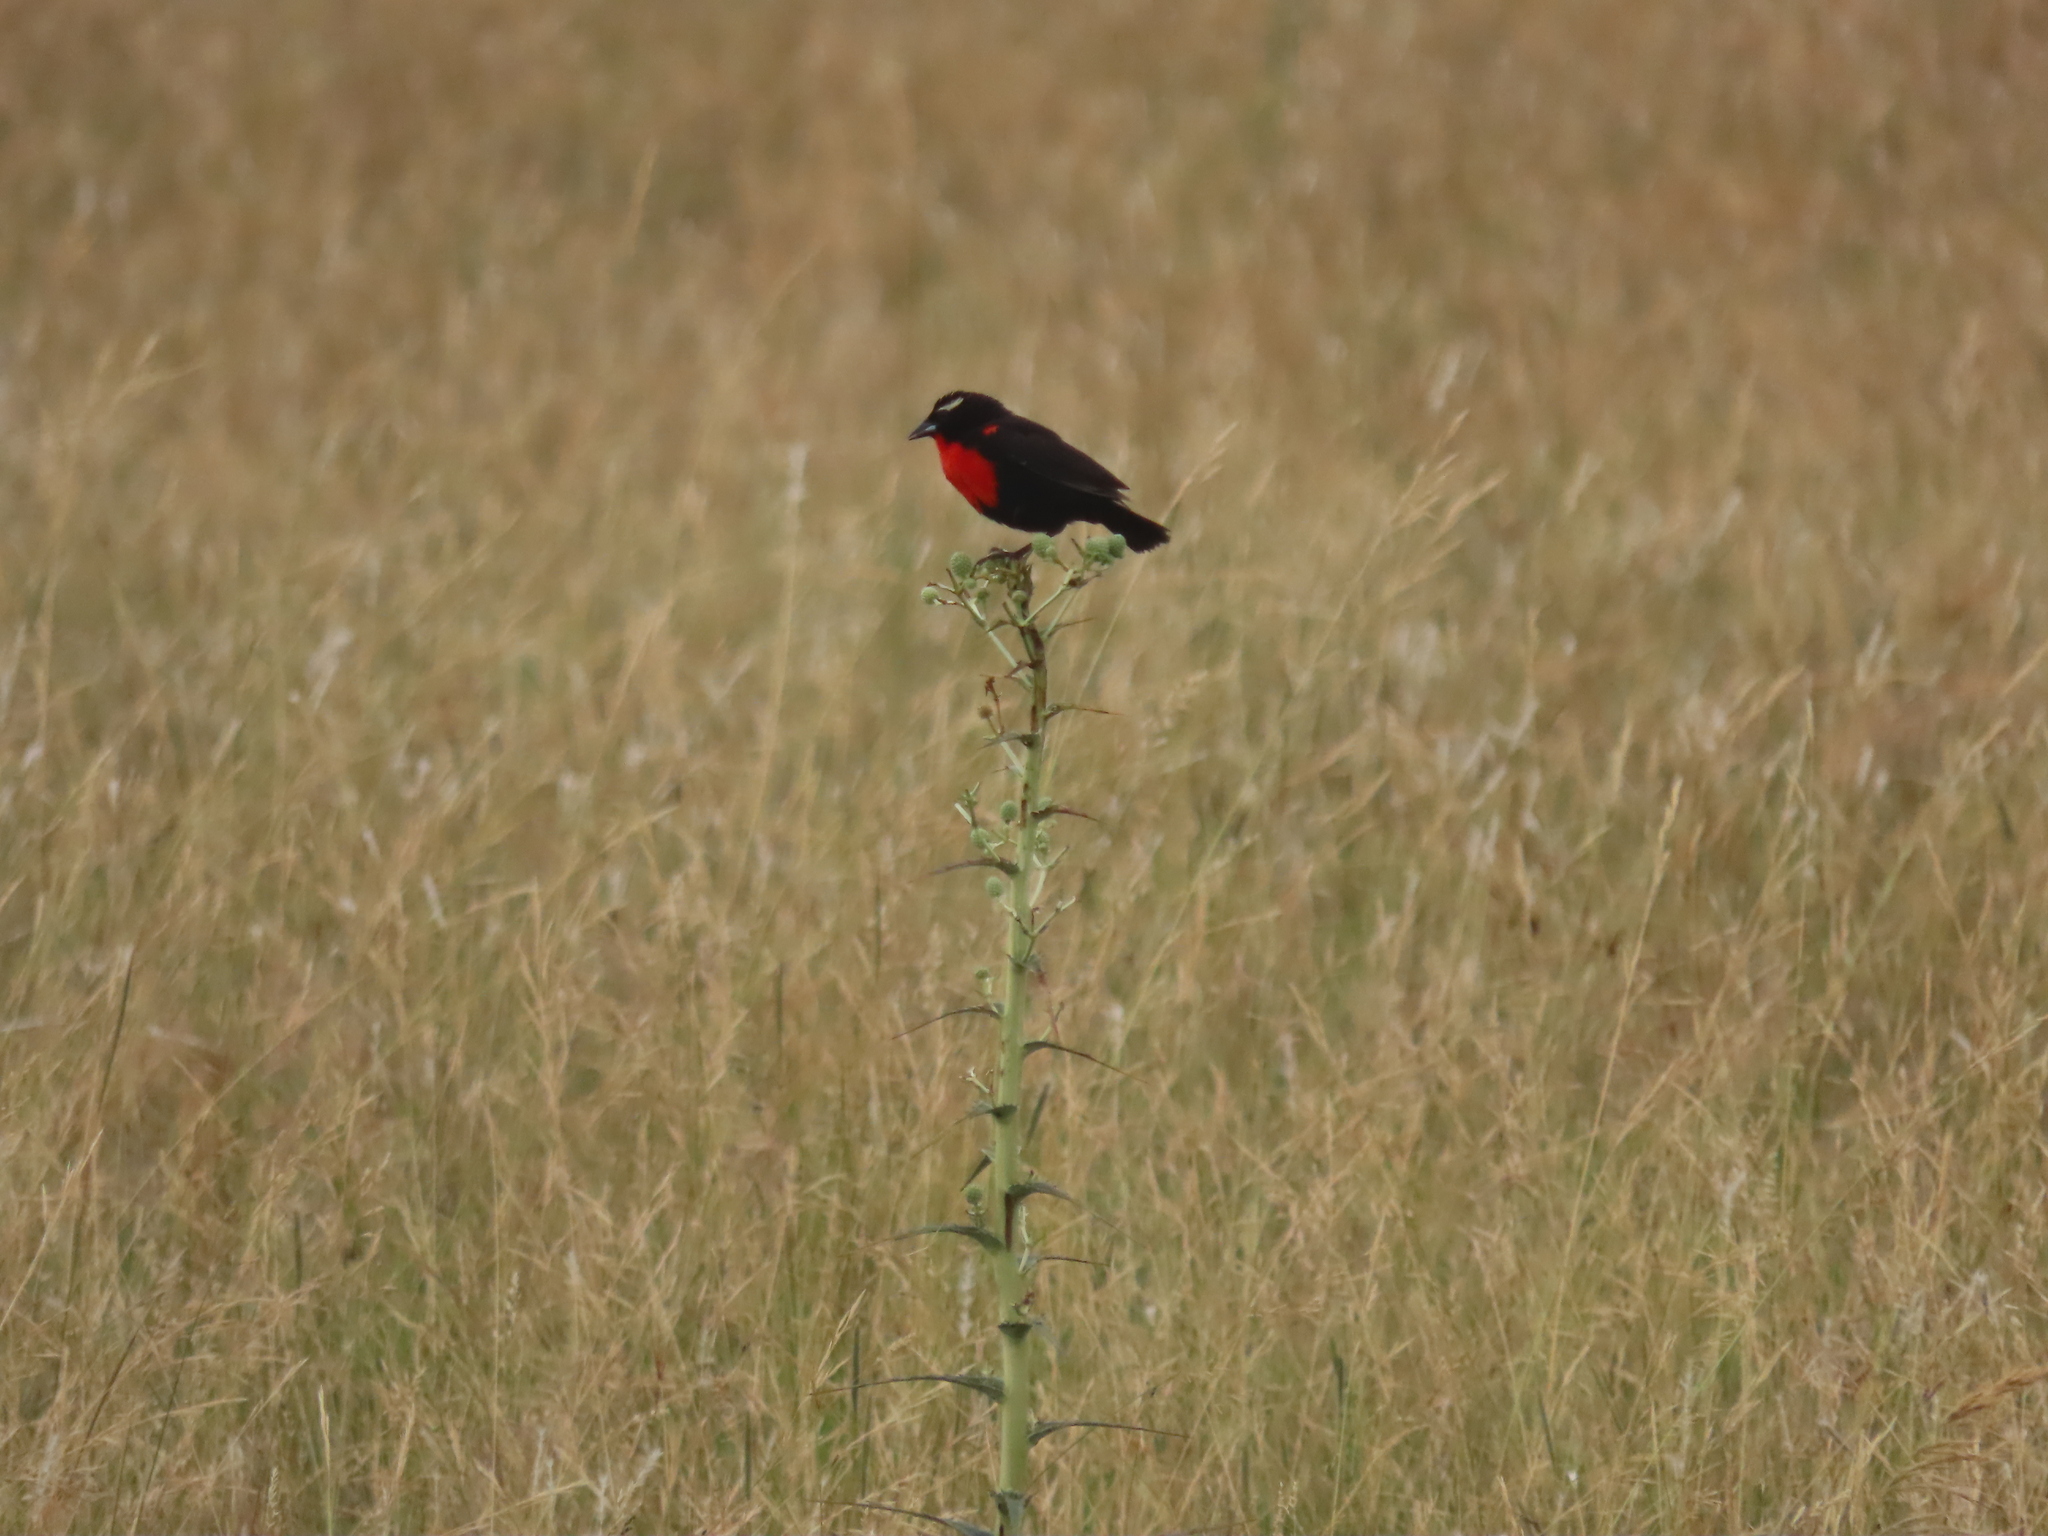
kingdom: Animalia
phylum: Chordata
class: Aves
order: Passeriformes
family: Icteridae
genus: Sturnella
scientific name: Sturnella superciliaris
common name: White-browed blackbird
